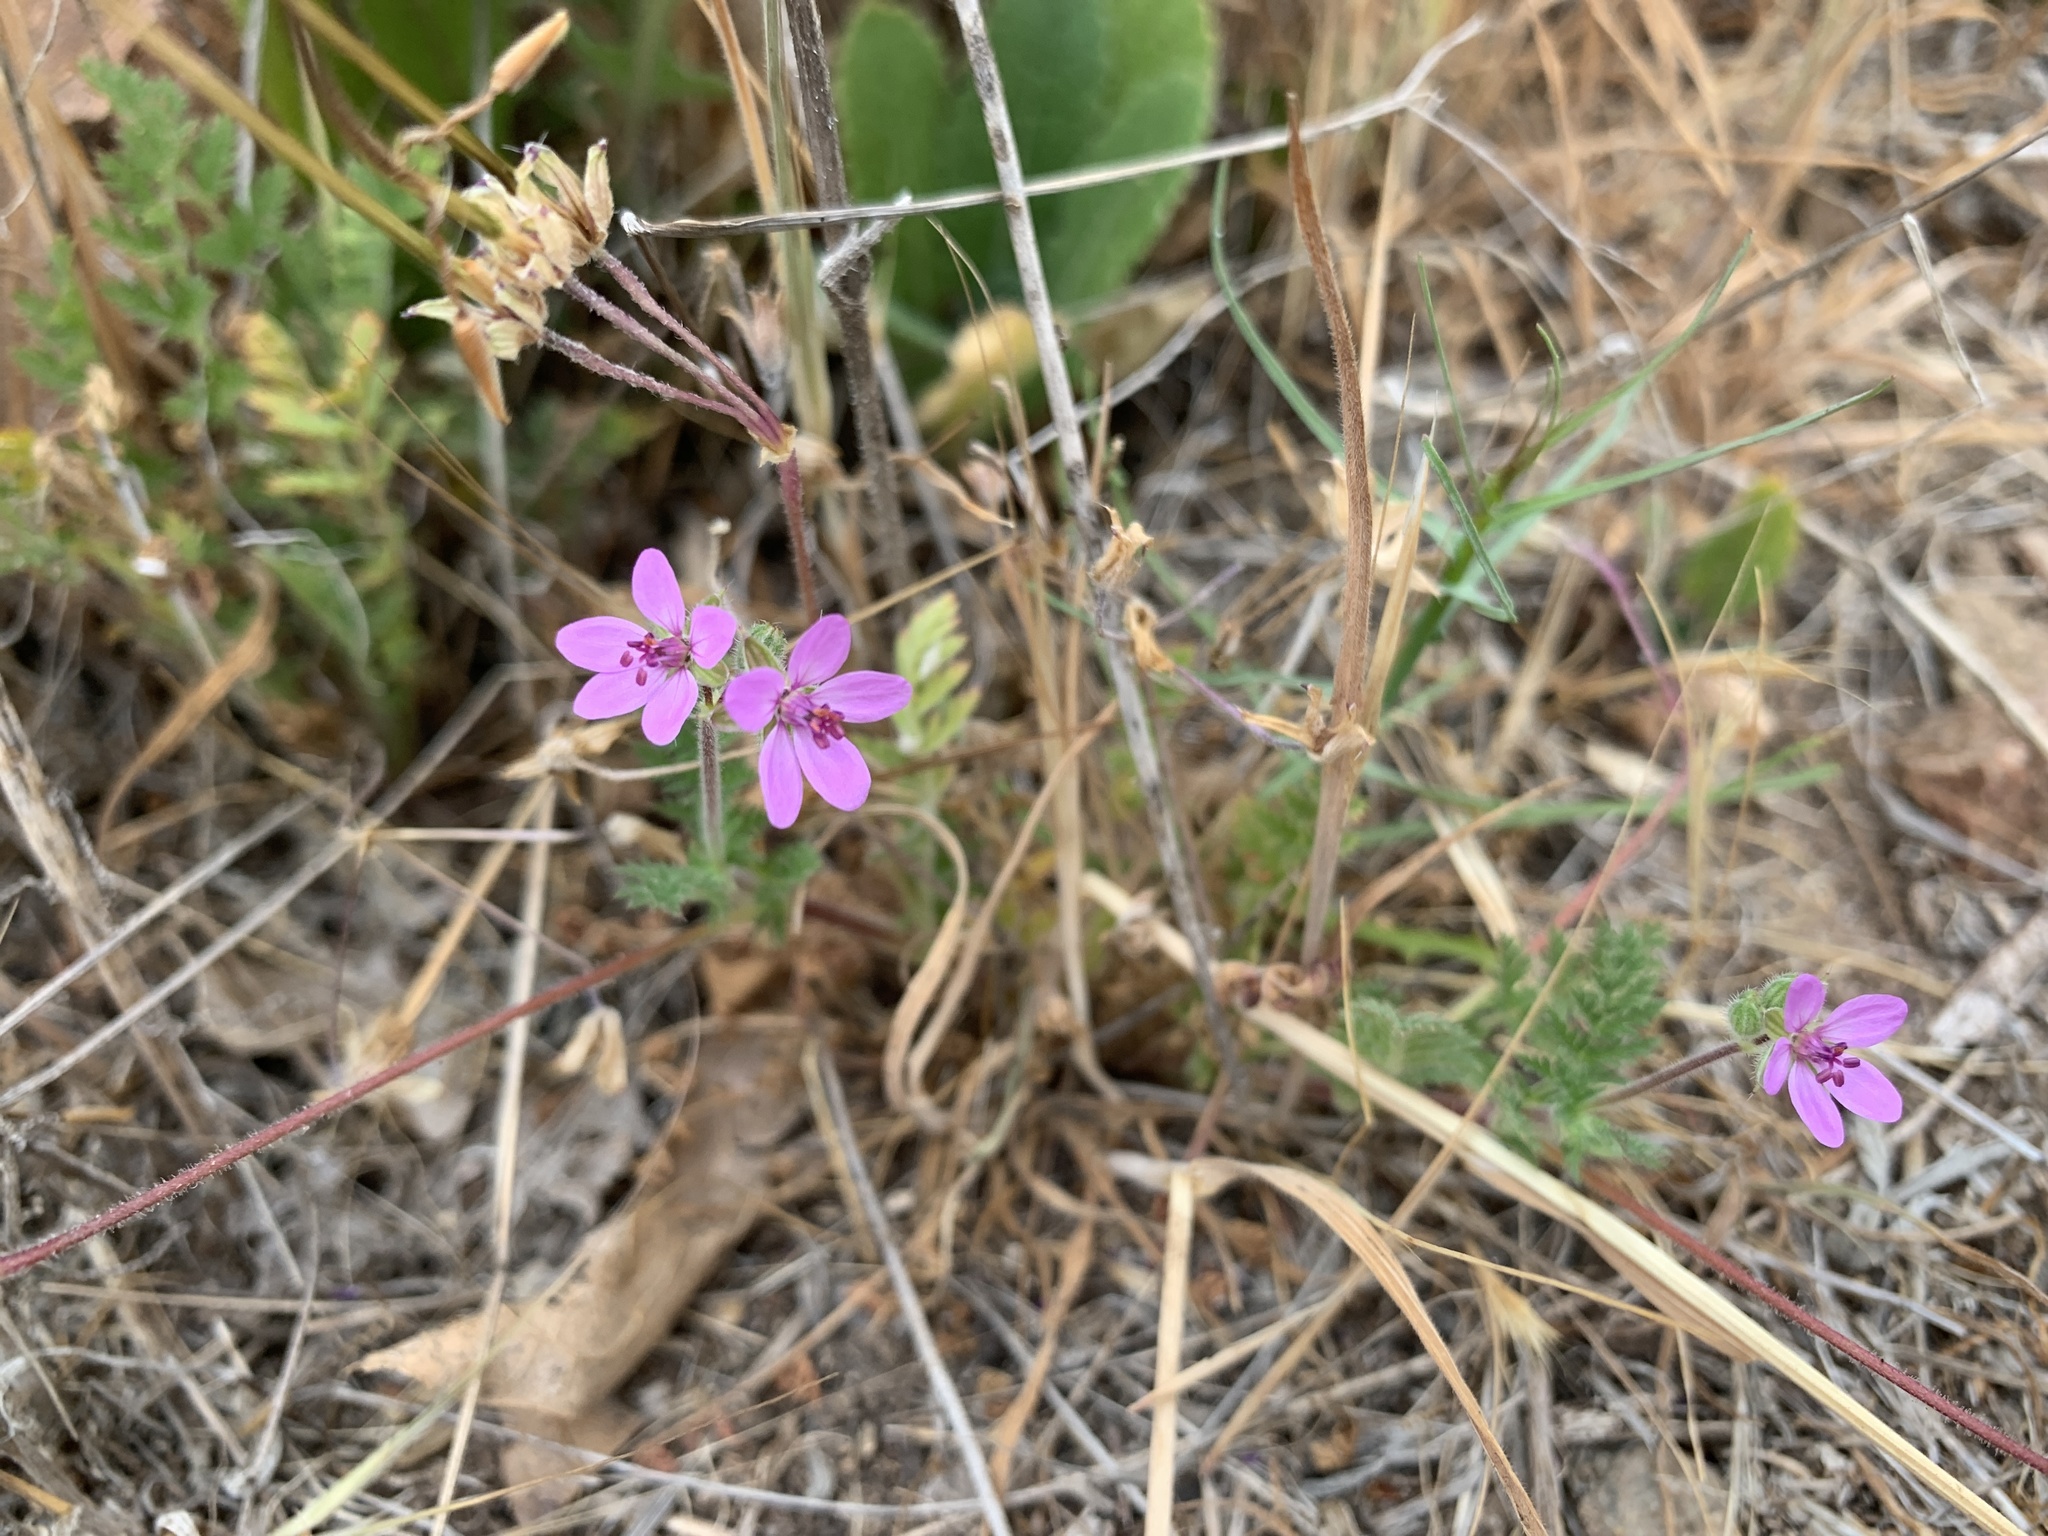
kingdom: Plantae
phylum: Tracheophyta
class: Magnoliopsida
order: Geraniales
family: Geraniaceae
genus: Erodium
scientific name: Erodium cicutarium
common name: Common stork's-bill
